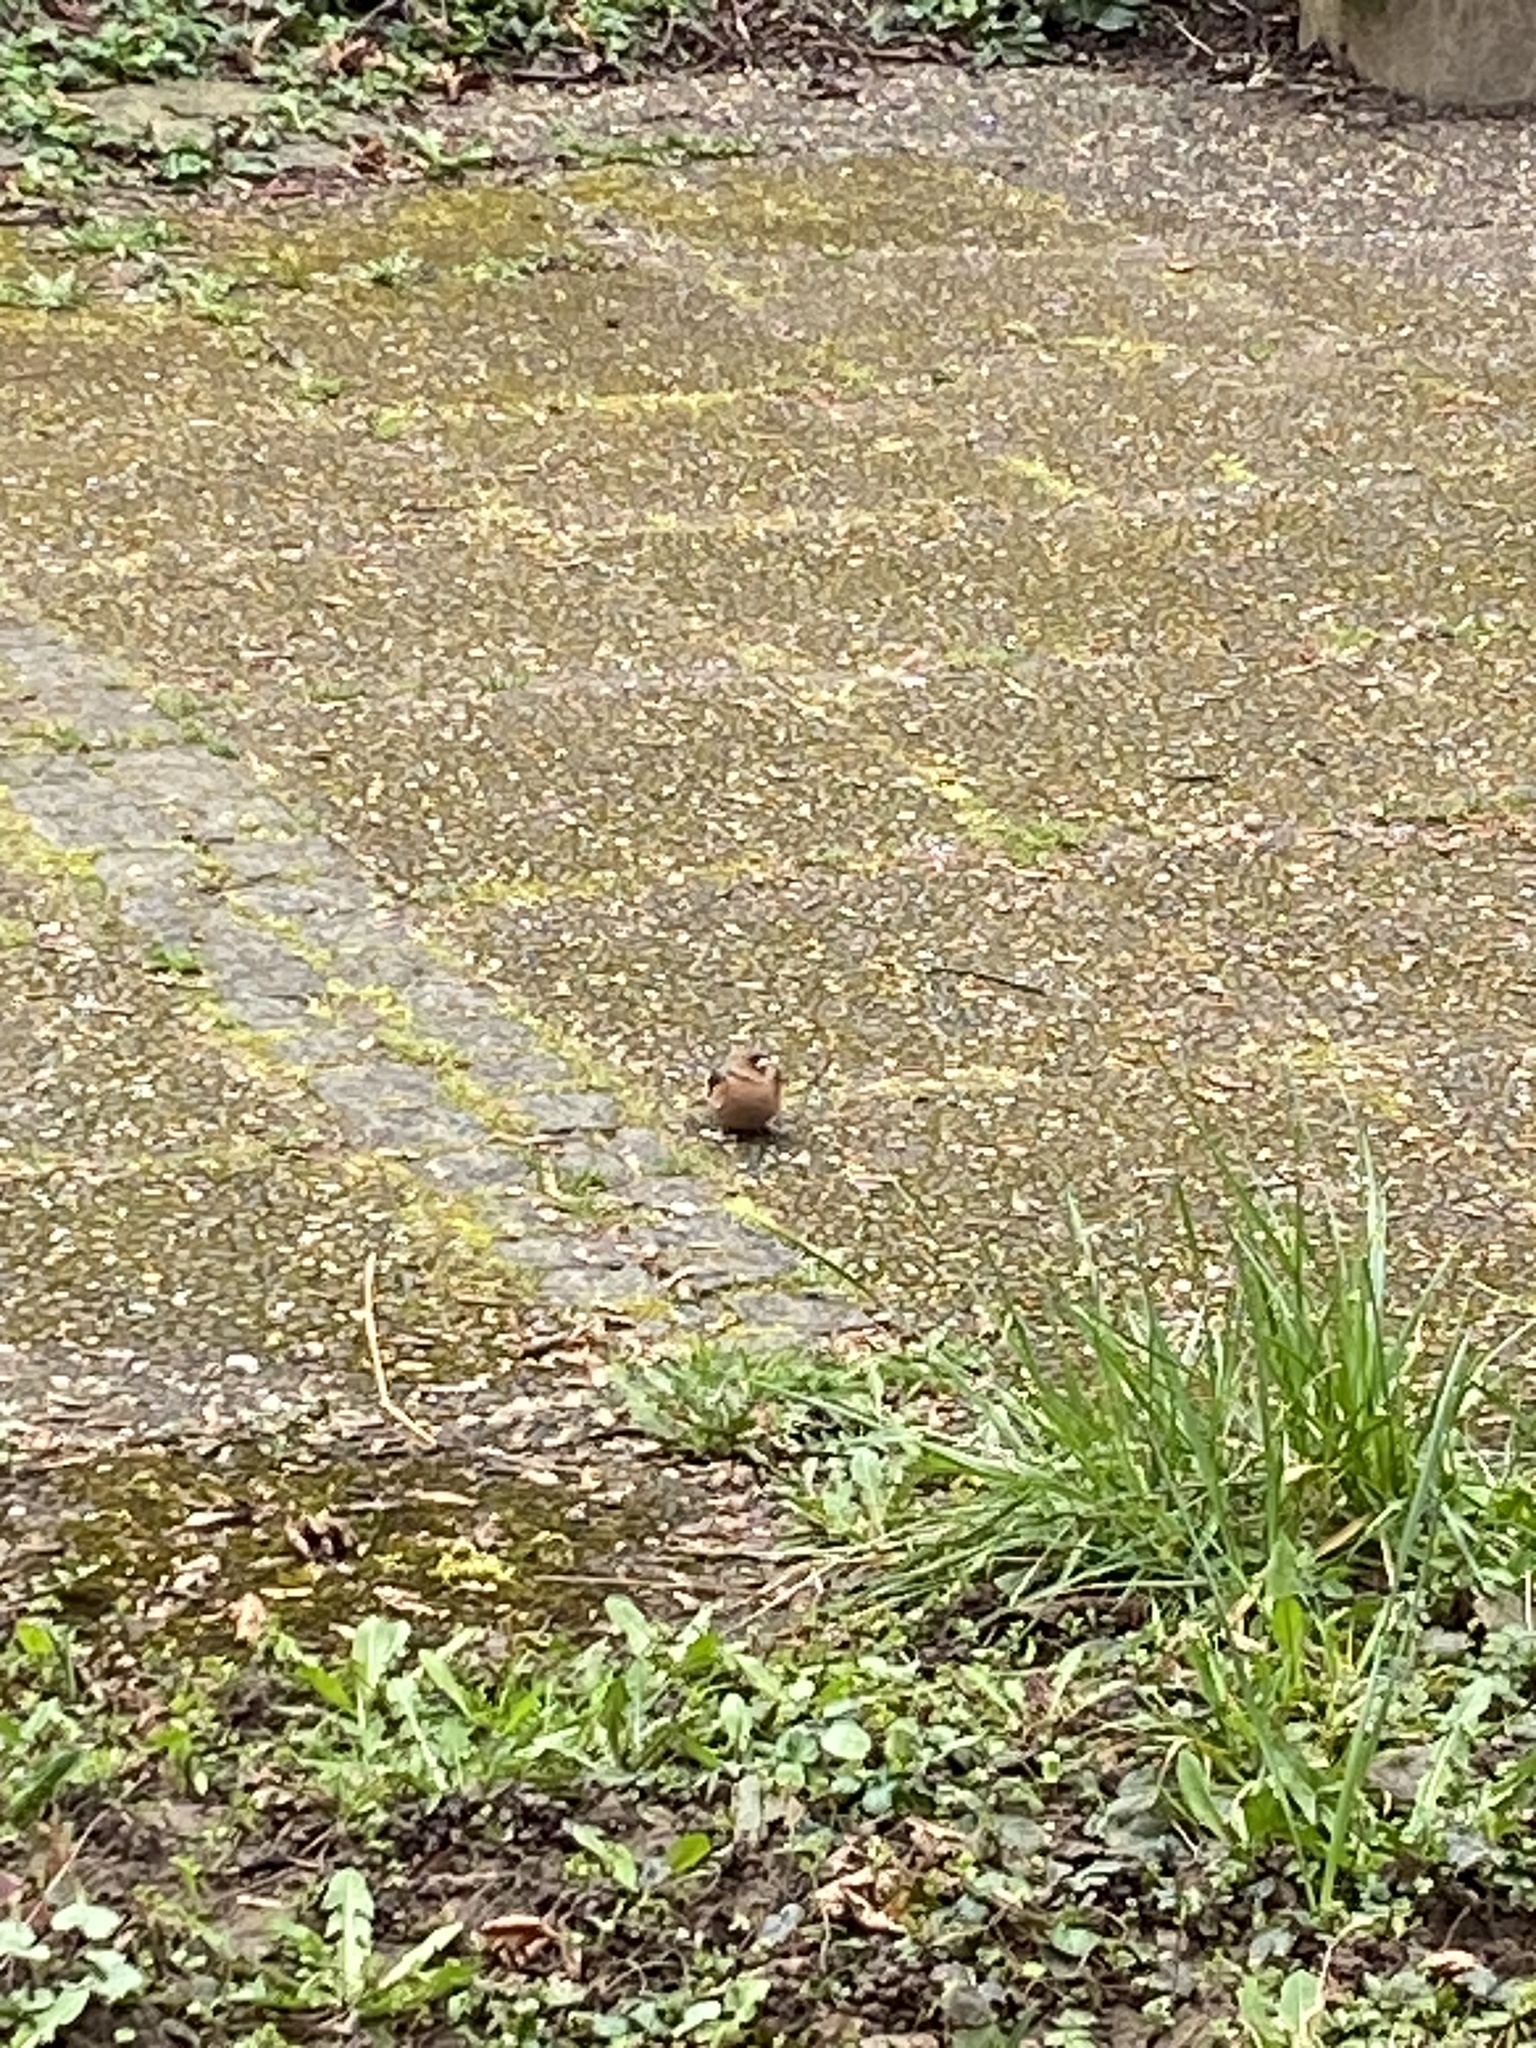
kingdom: Animalia
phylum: Chordata
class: Aves
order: Passeriformes
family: Fringillidae
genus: Fringilla
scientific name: Fringilla coelebs
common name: Common chaffinch
